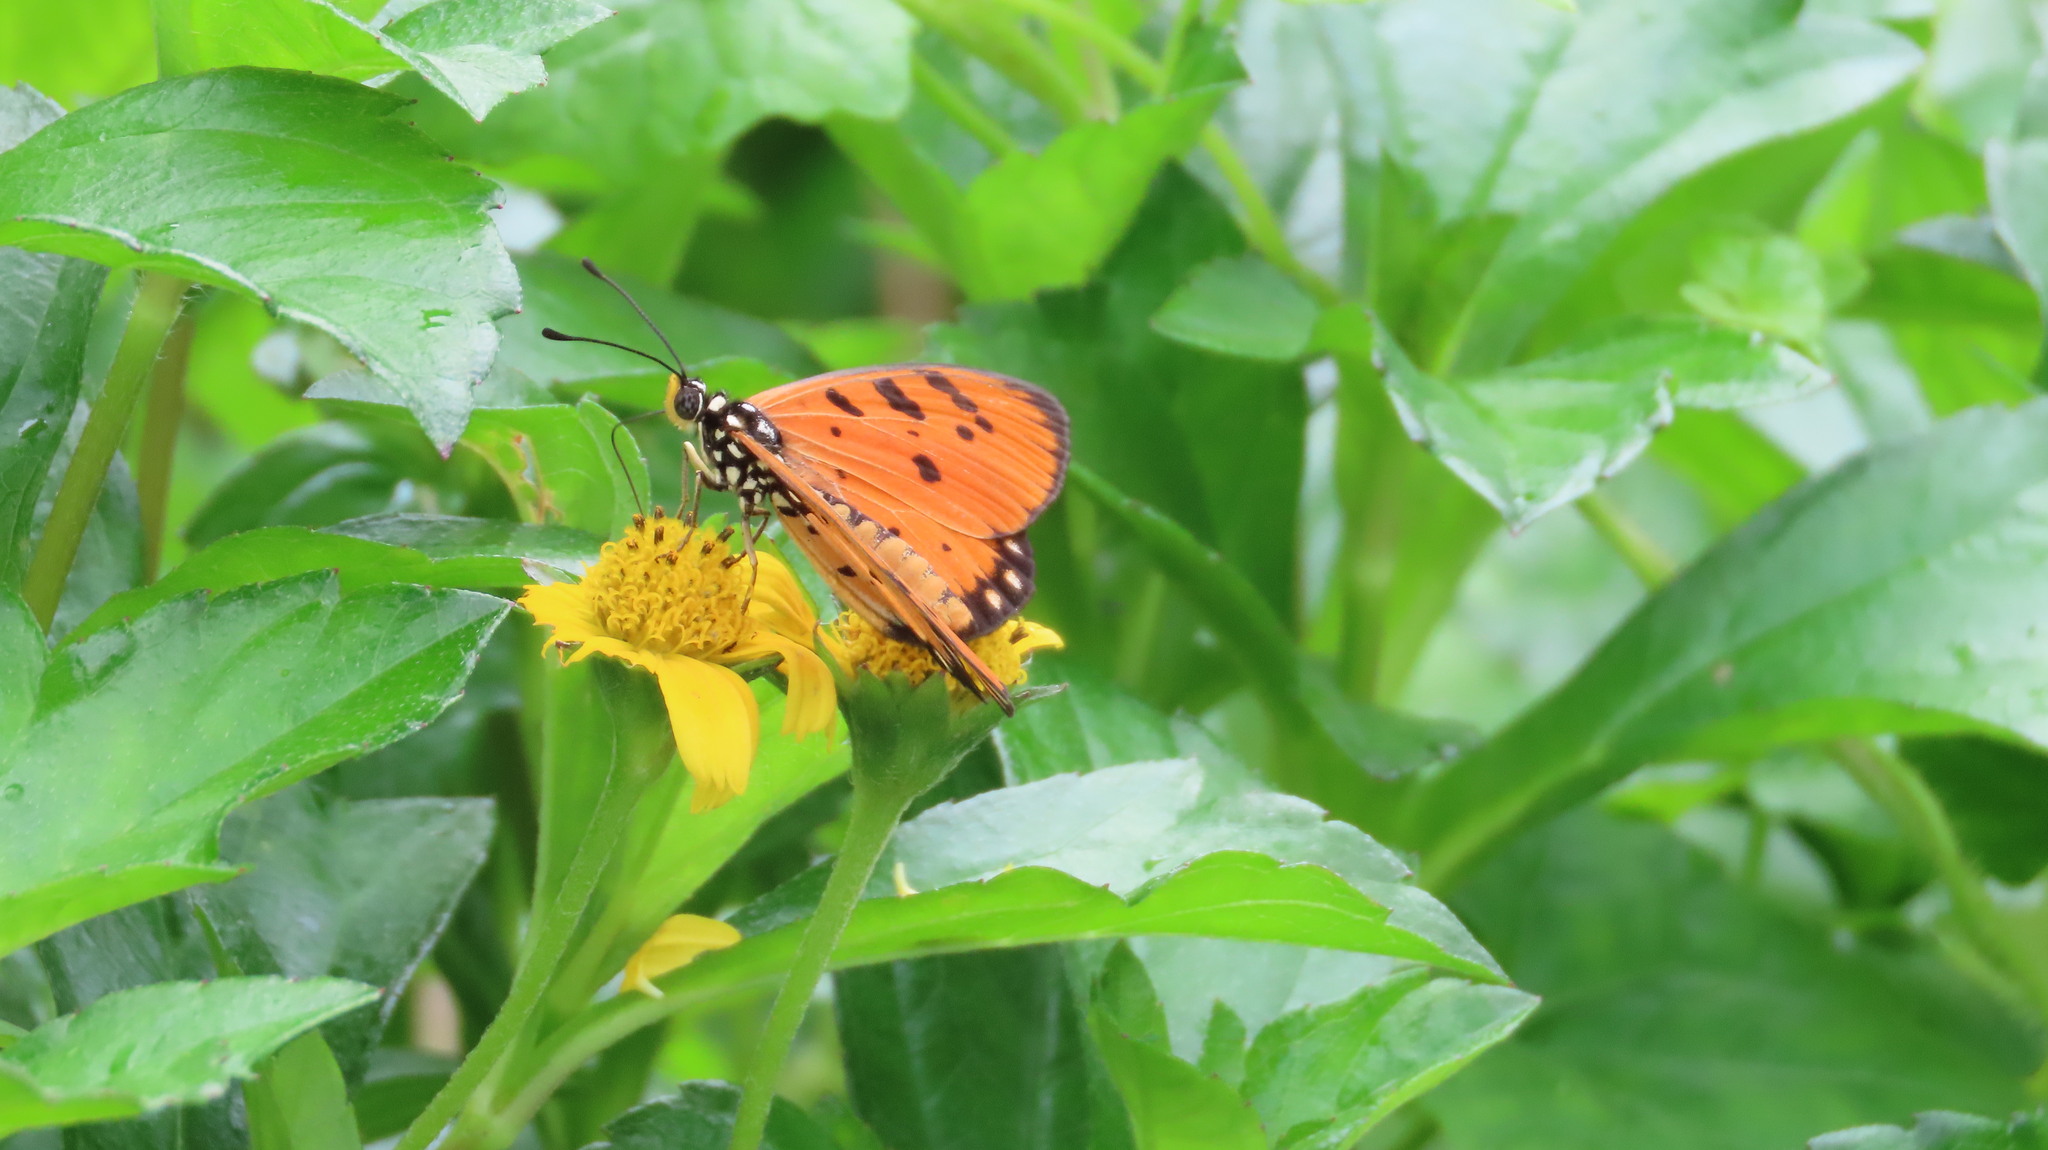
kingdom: Animalia
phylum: Arthropoda
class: Insecta
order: Lepidoptera
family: Nymphalidae
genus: Acraea
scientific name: Acraea terpsicore
